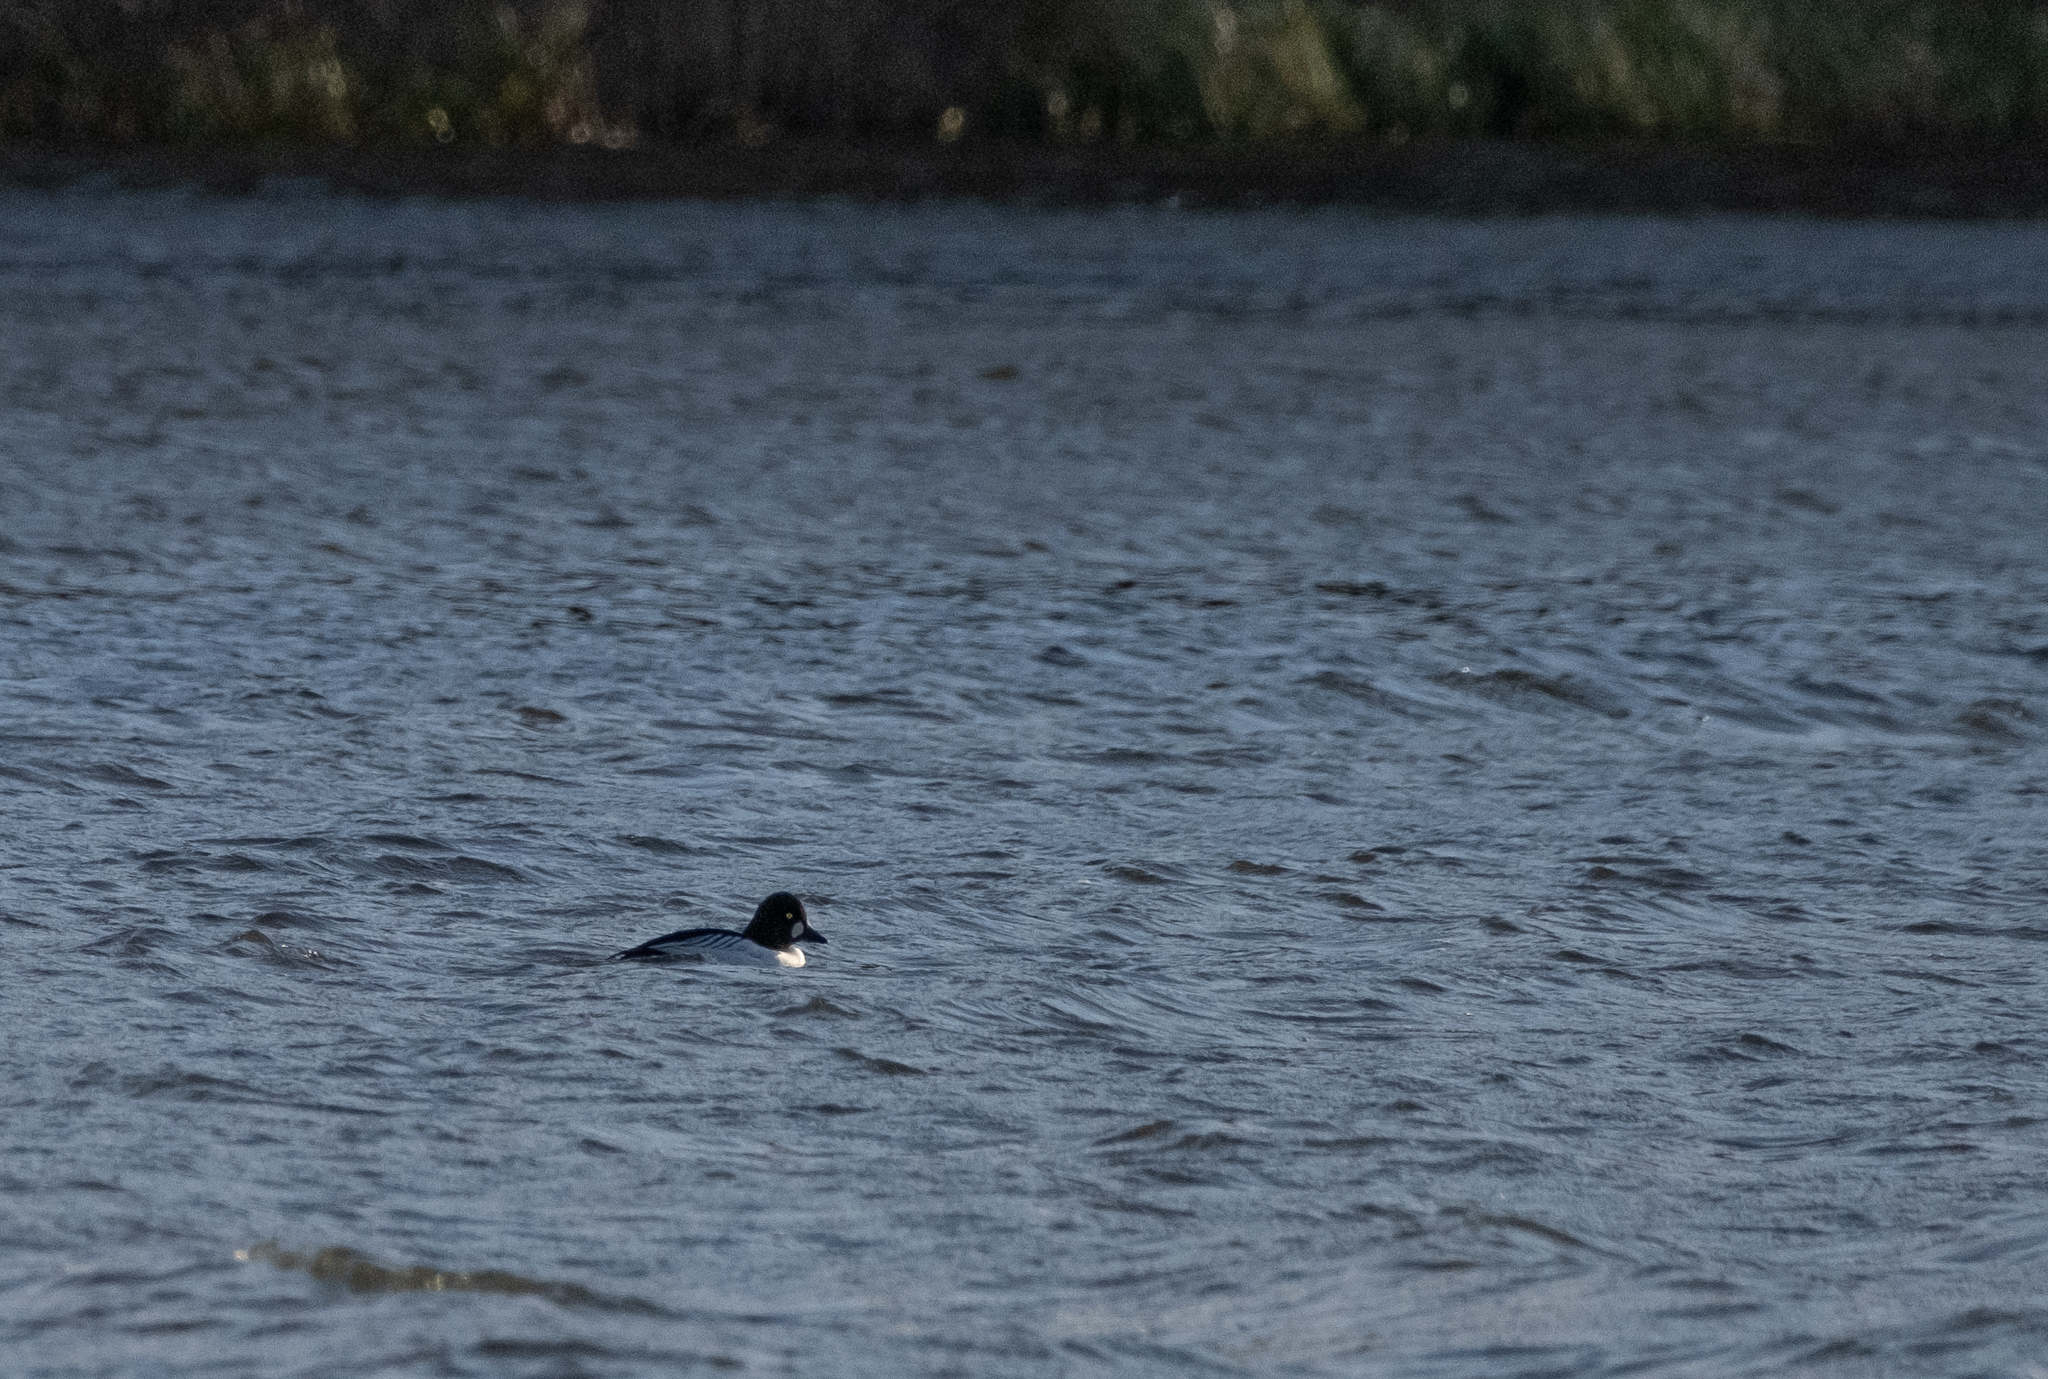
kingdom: Animalia
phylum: Chordata
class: Aves
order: Anseriformes
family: Anatidae
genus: Bucephala
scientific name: Bucephala clangula
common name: Common goldeneye
